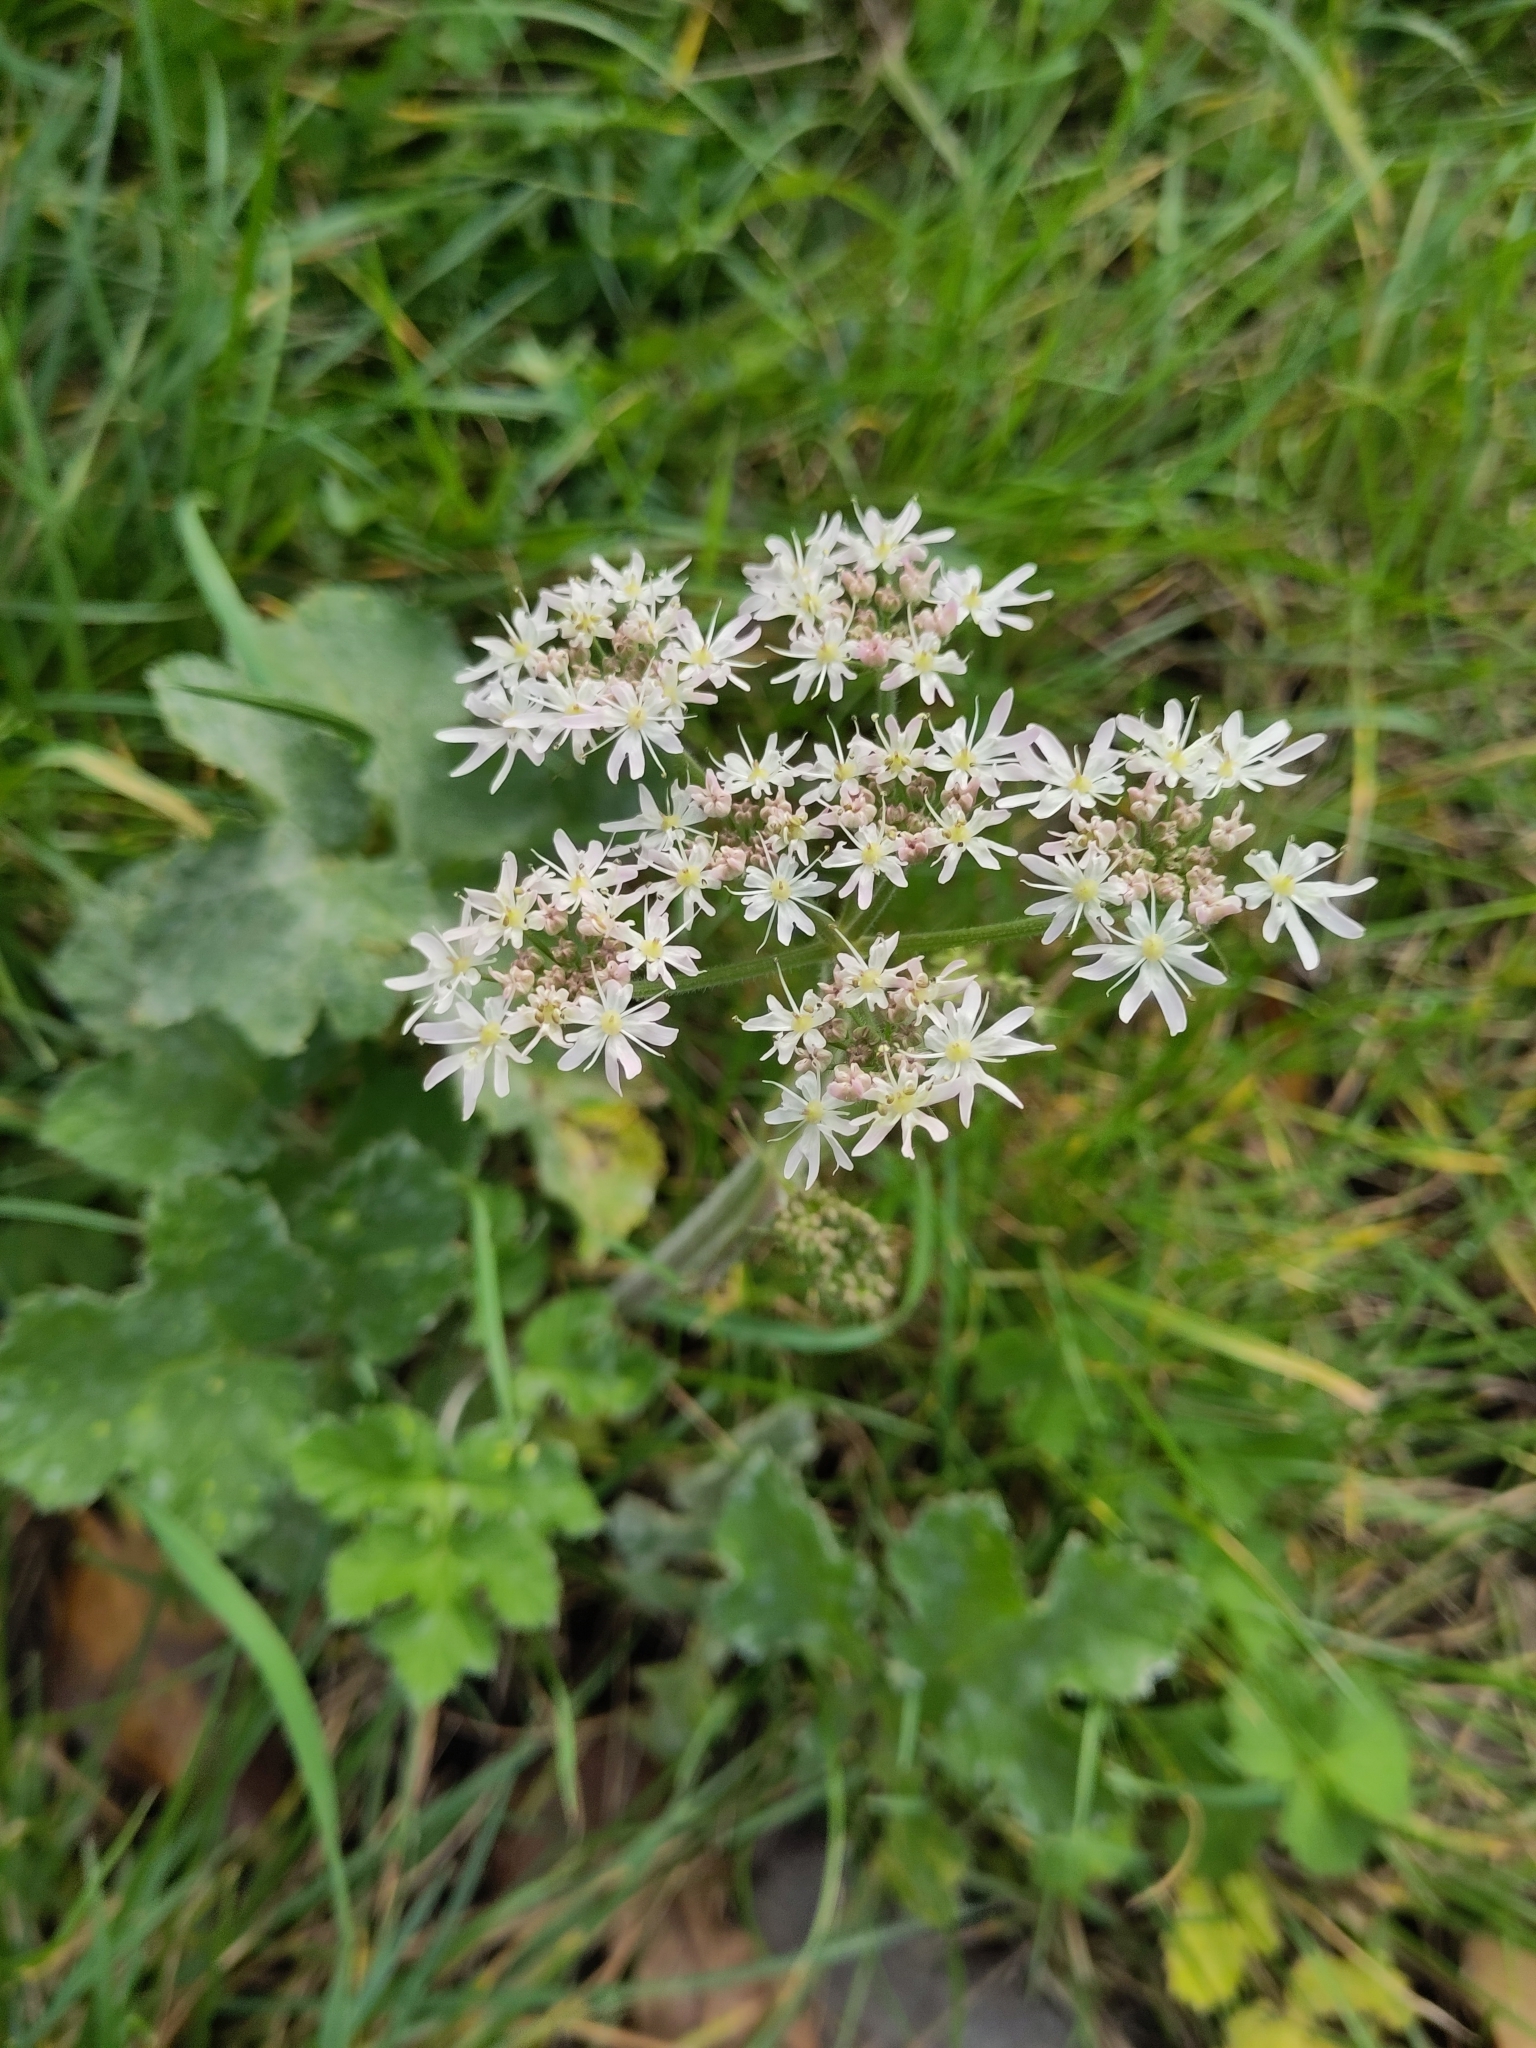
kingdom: Plantae
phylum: Tracheophyta
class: Magnoliopsida
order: Apiales
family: Apiaceae
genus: Heracleum
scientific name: Heracleum sphondylium
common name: Hogweed
